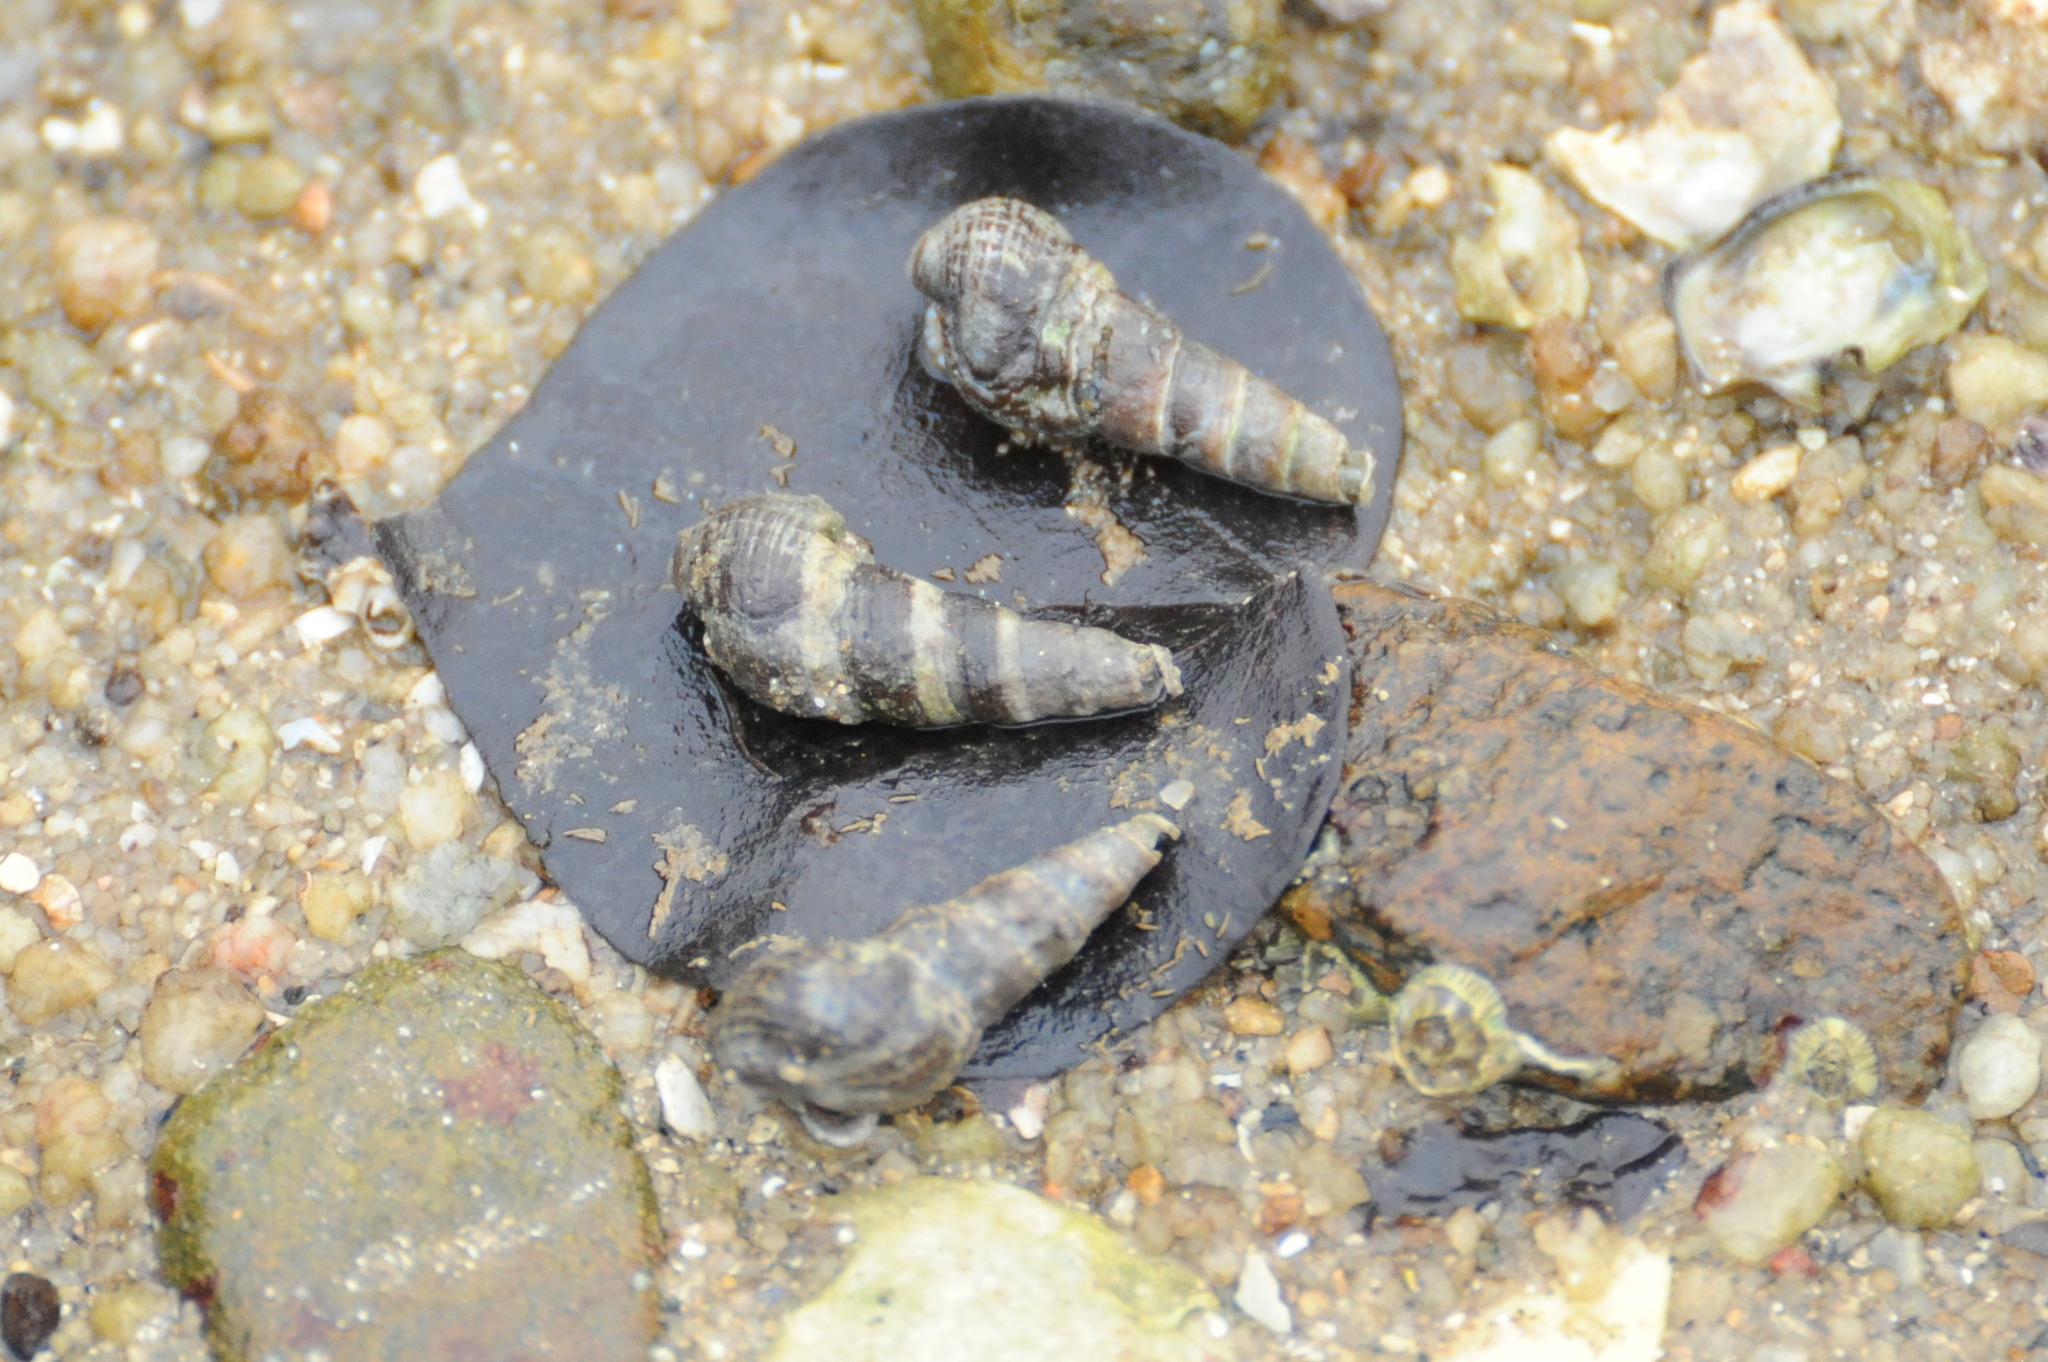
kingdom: Animalia
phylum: Mollusca
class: Gastropoda
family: Batillariidae
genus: Batillaria
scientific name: Batillaria zonalis
